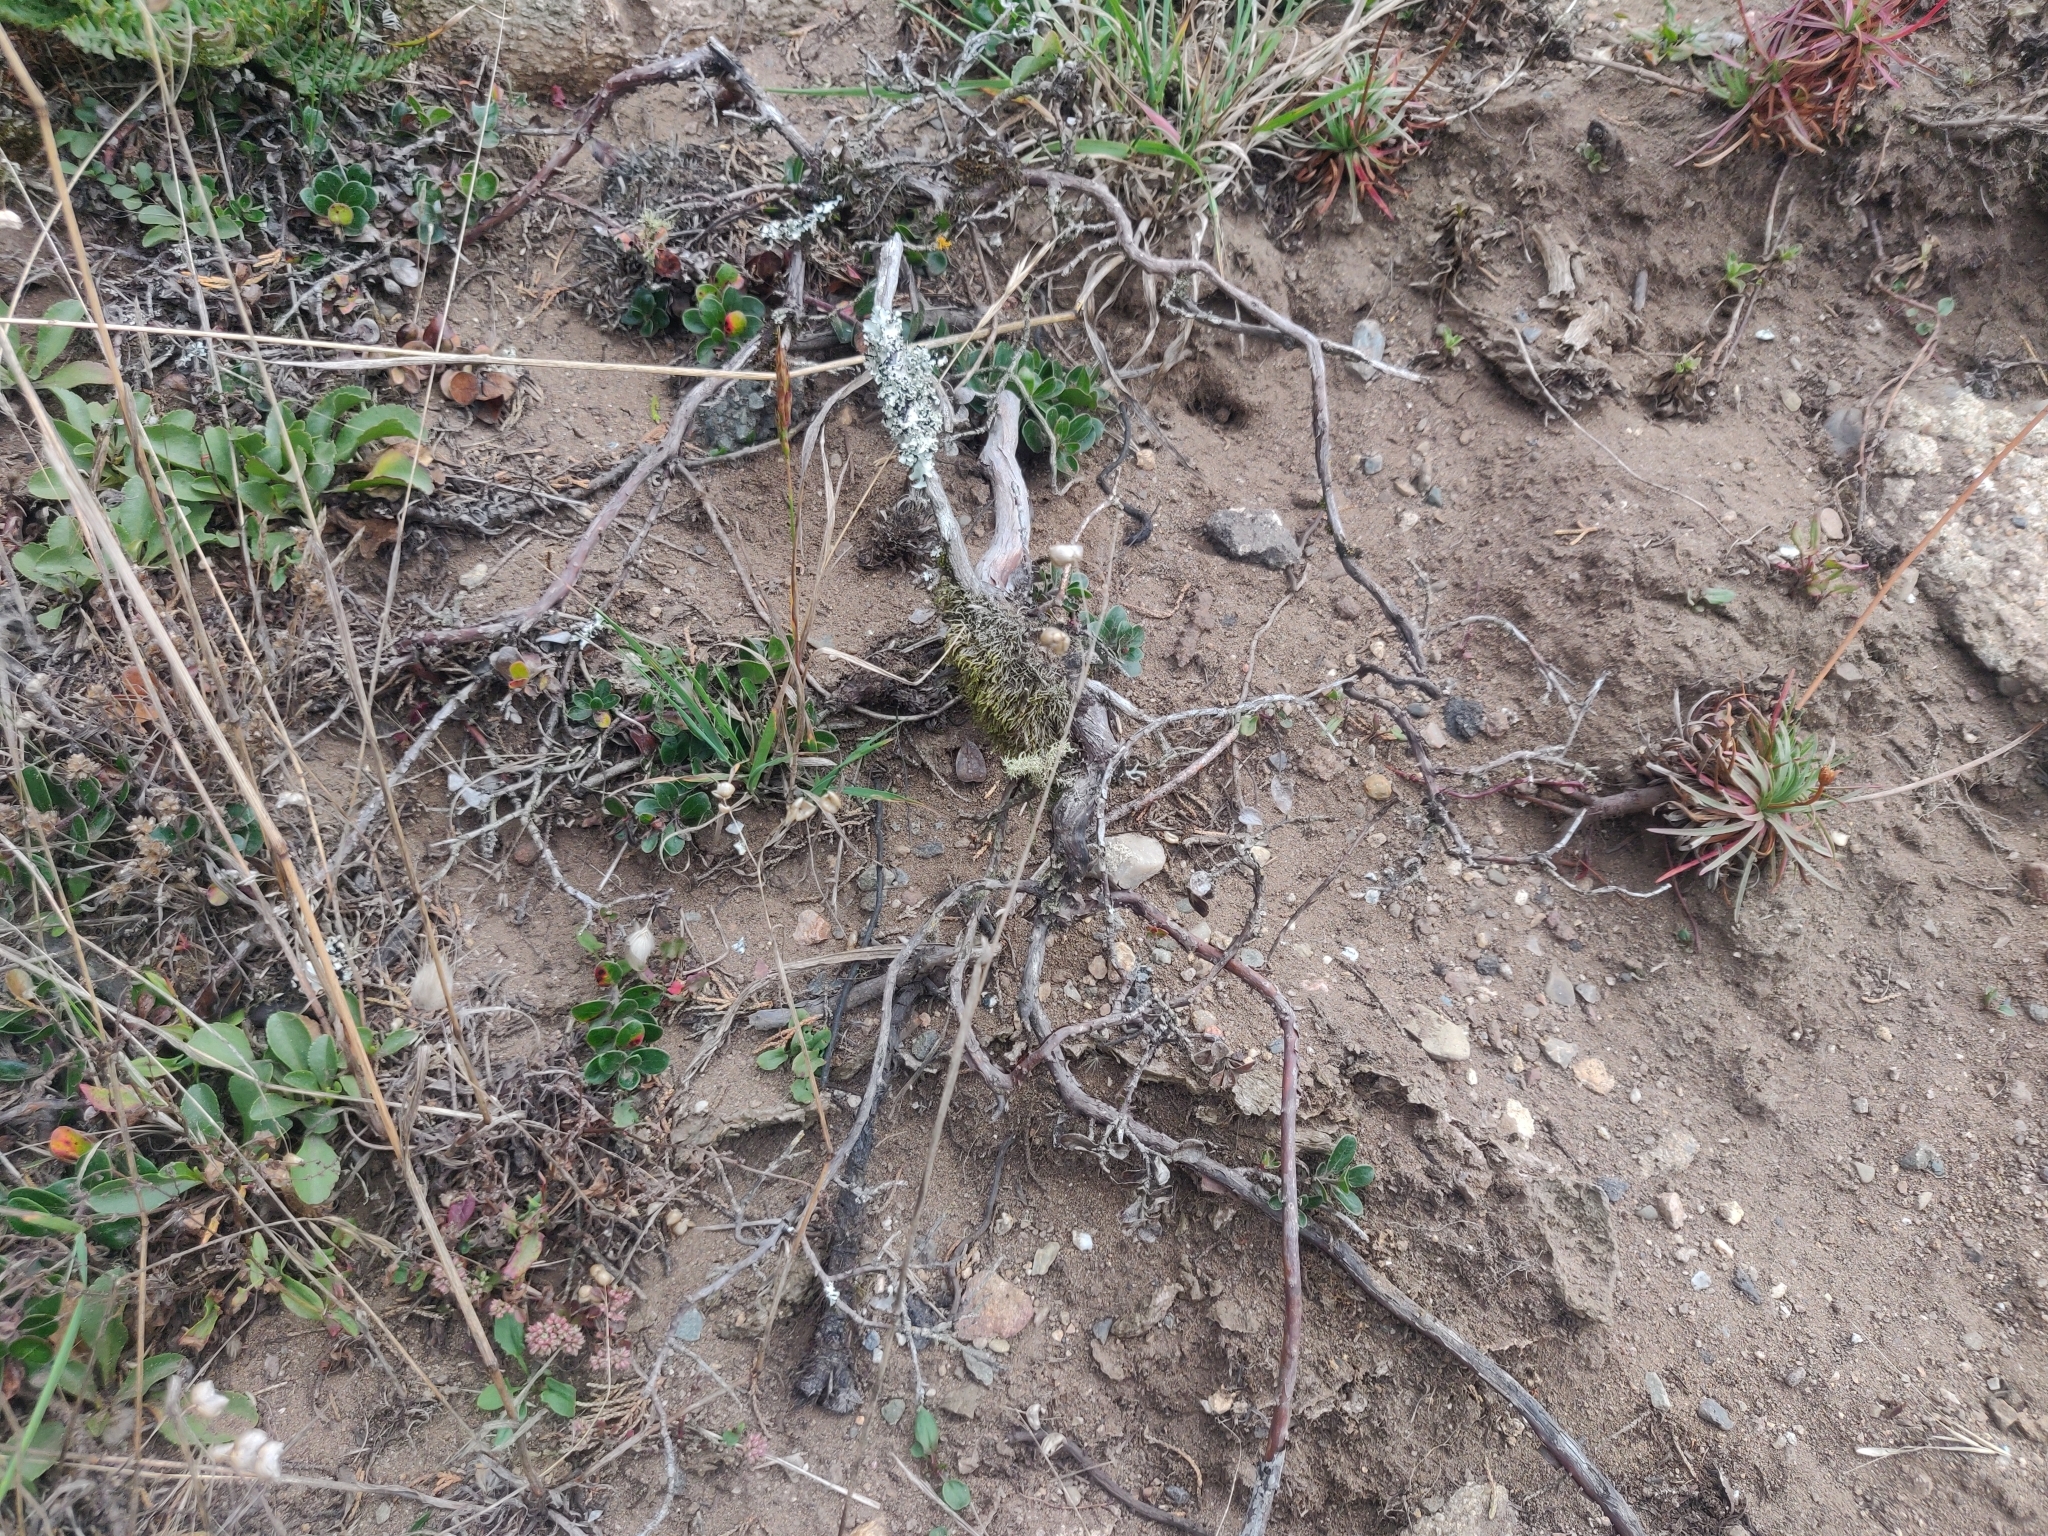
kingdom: Plantae
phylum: Tracheophyta
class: Magnoliopsida
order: Ericales
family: Ericaceae
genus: Arctostaphylos
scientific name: Arctostaphylos uva-ursi
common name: Bearberry
